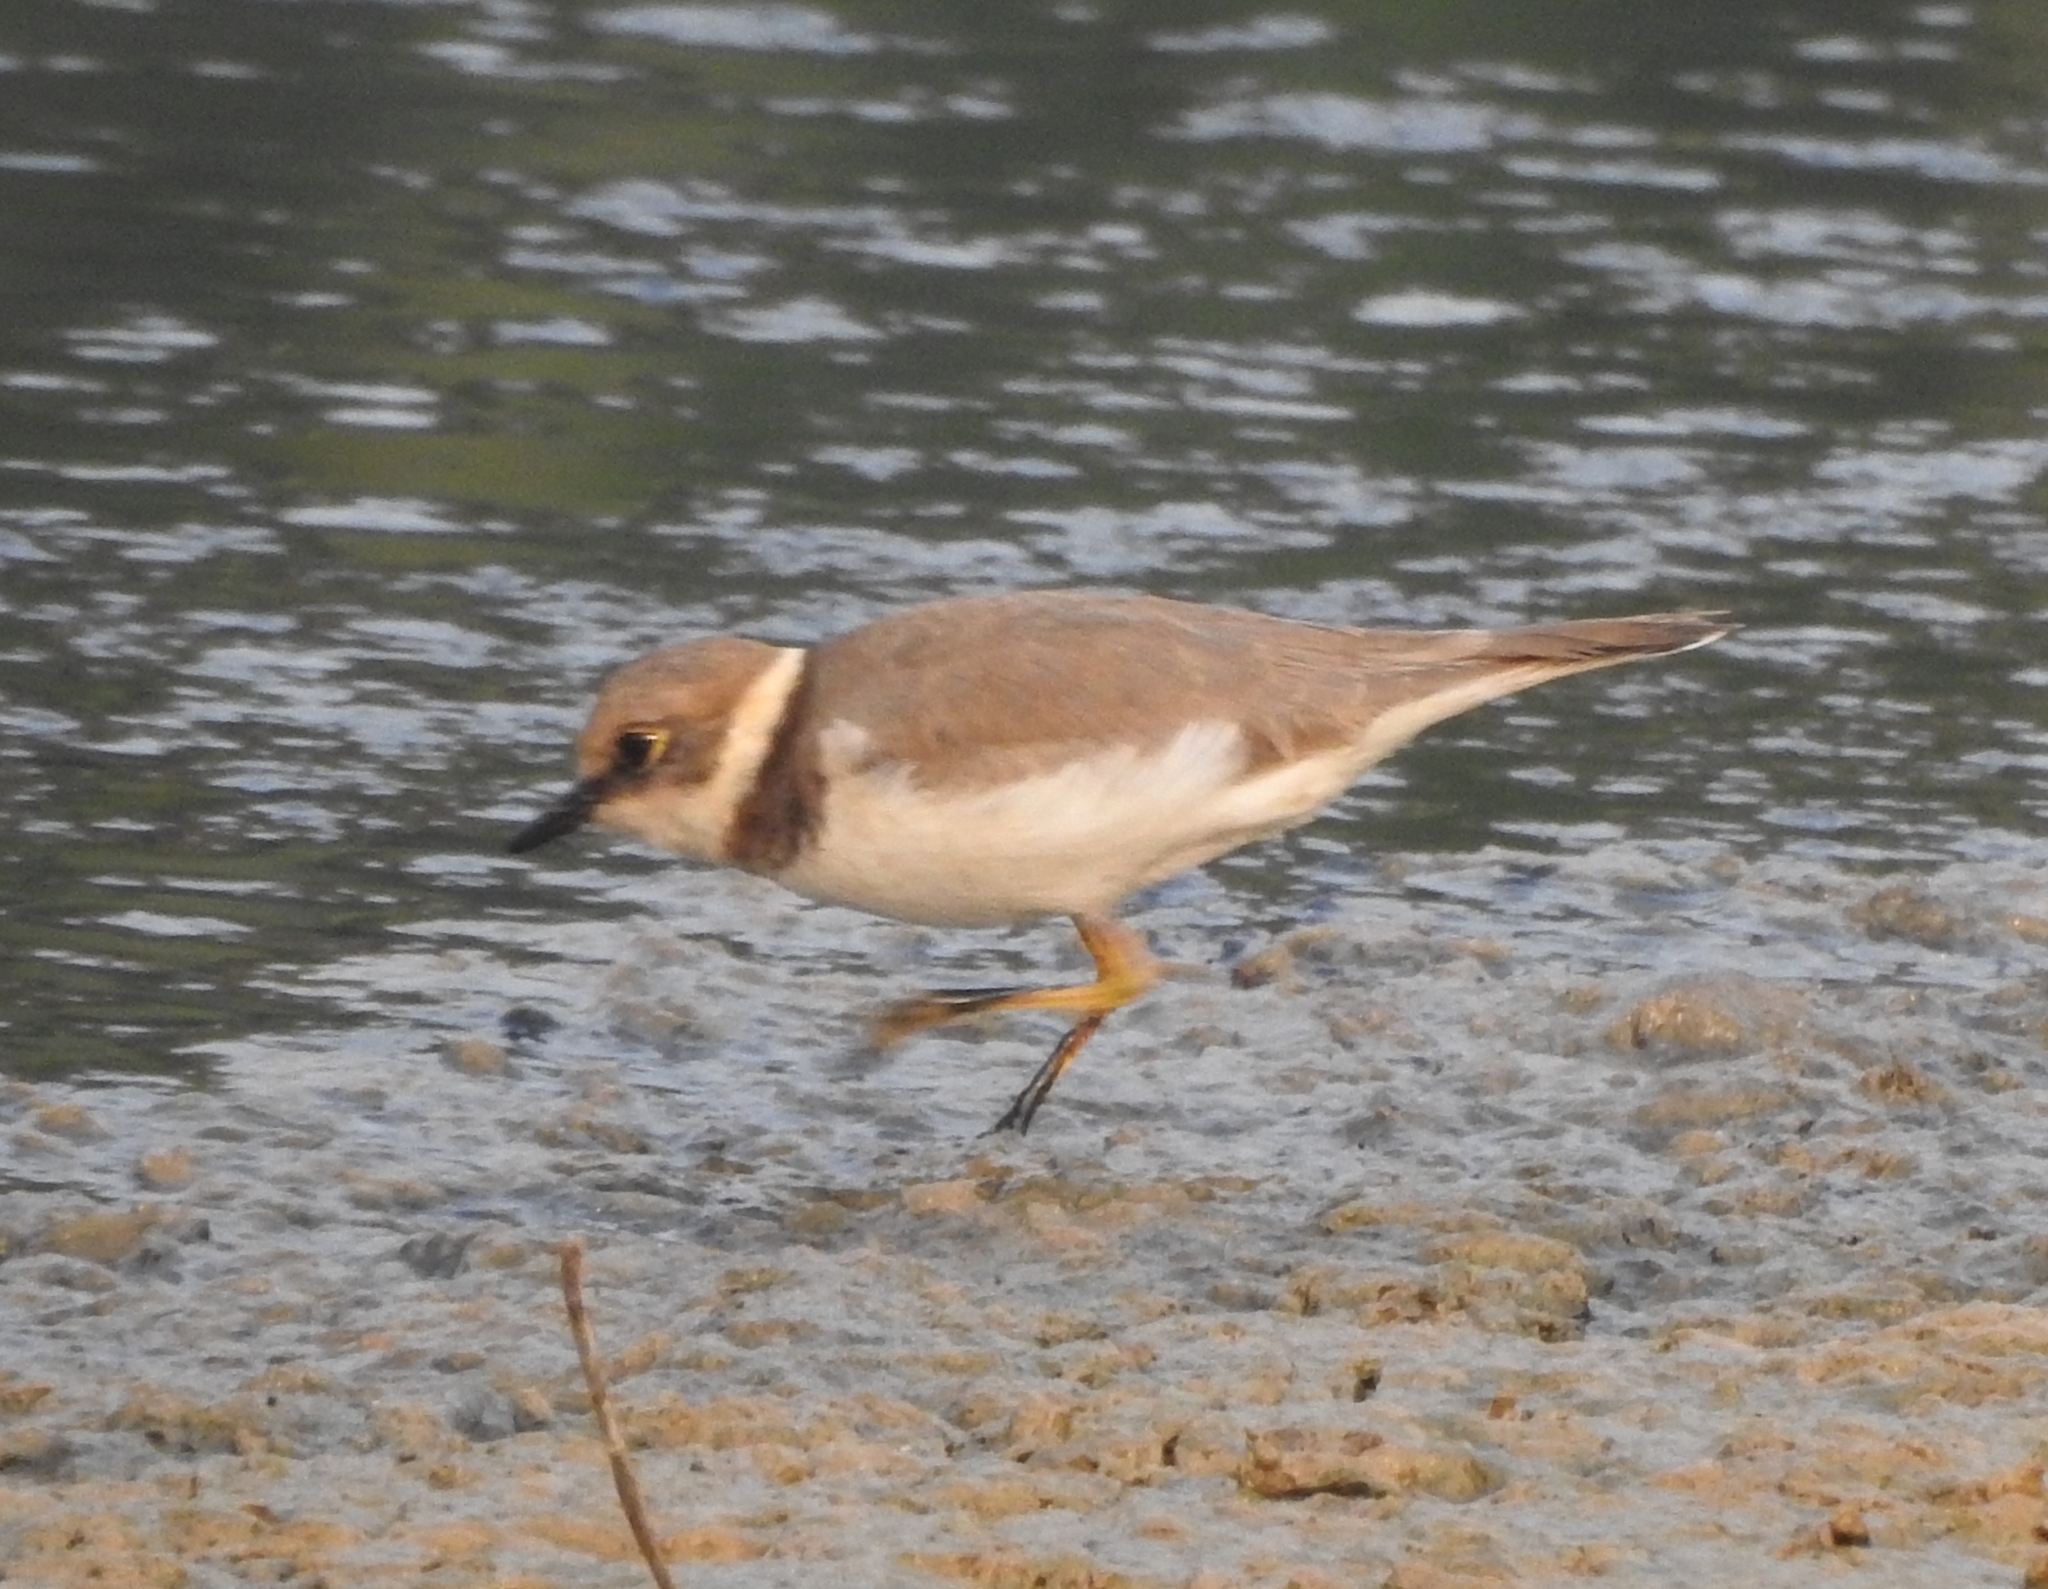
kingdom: Animalia
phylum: Chordata
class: Aves
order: Charadriiformes
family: Charadriidae
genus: Charadrius
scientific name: Charadrius dubius
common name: Little ringed plover
